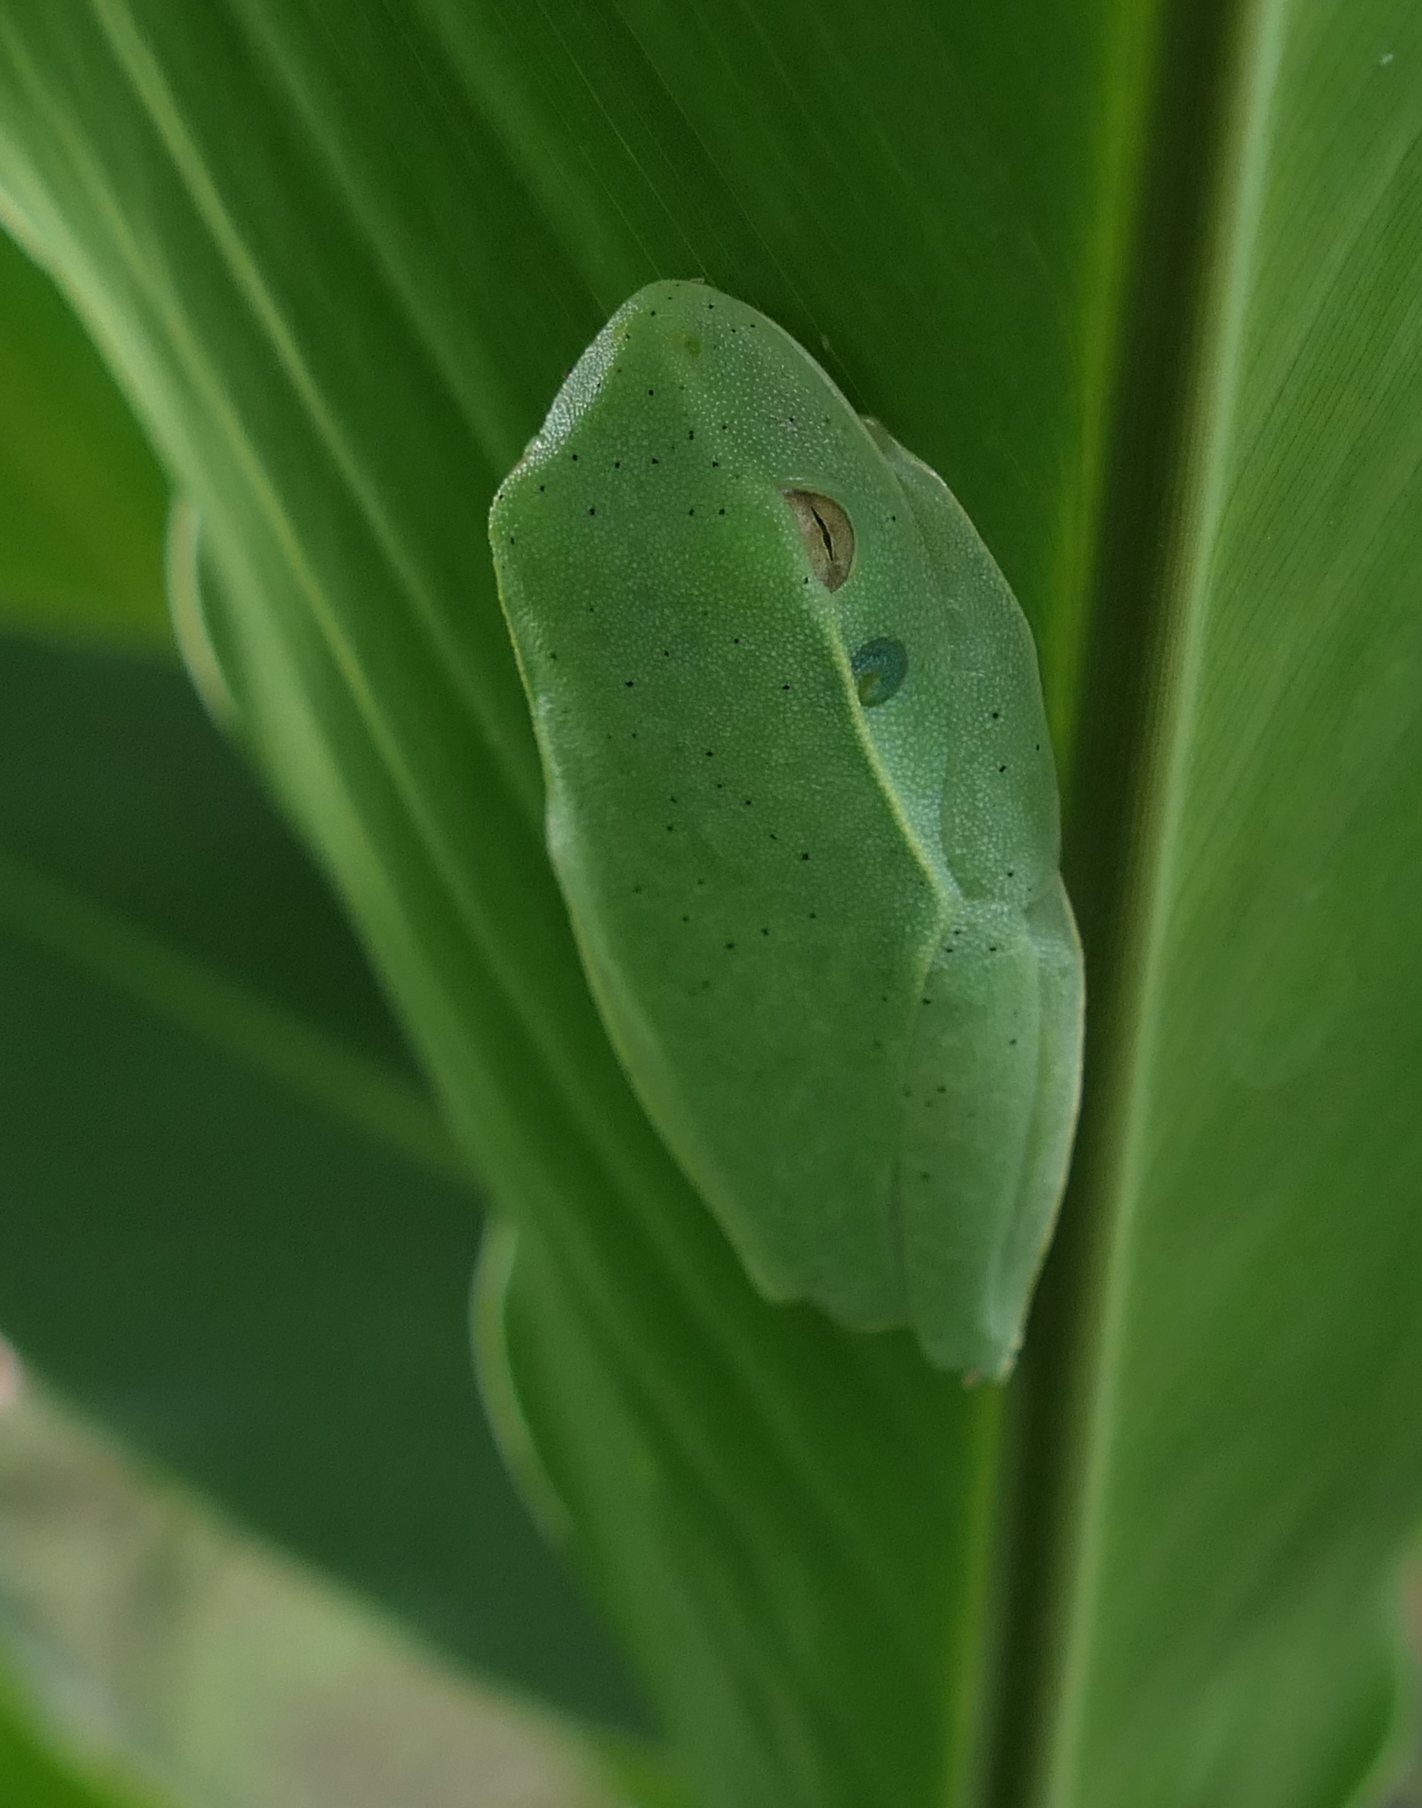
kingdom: Animalia
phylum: Chordata
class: Amphibia
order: Anura
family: Hylidae
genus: Boana
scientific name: Boana albomarginata
